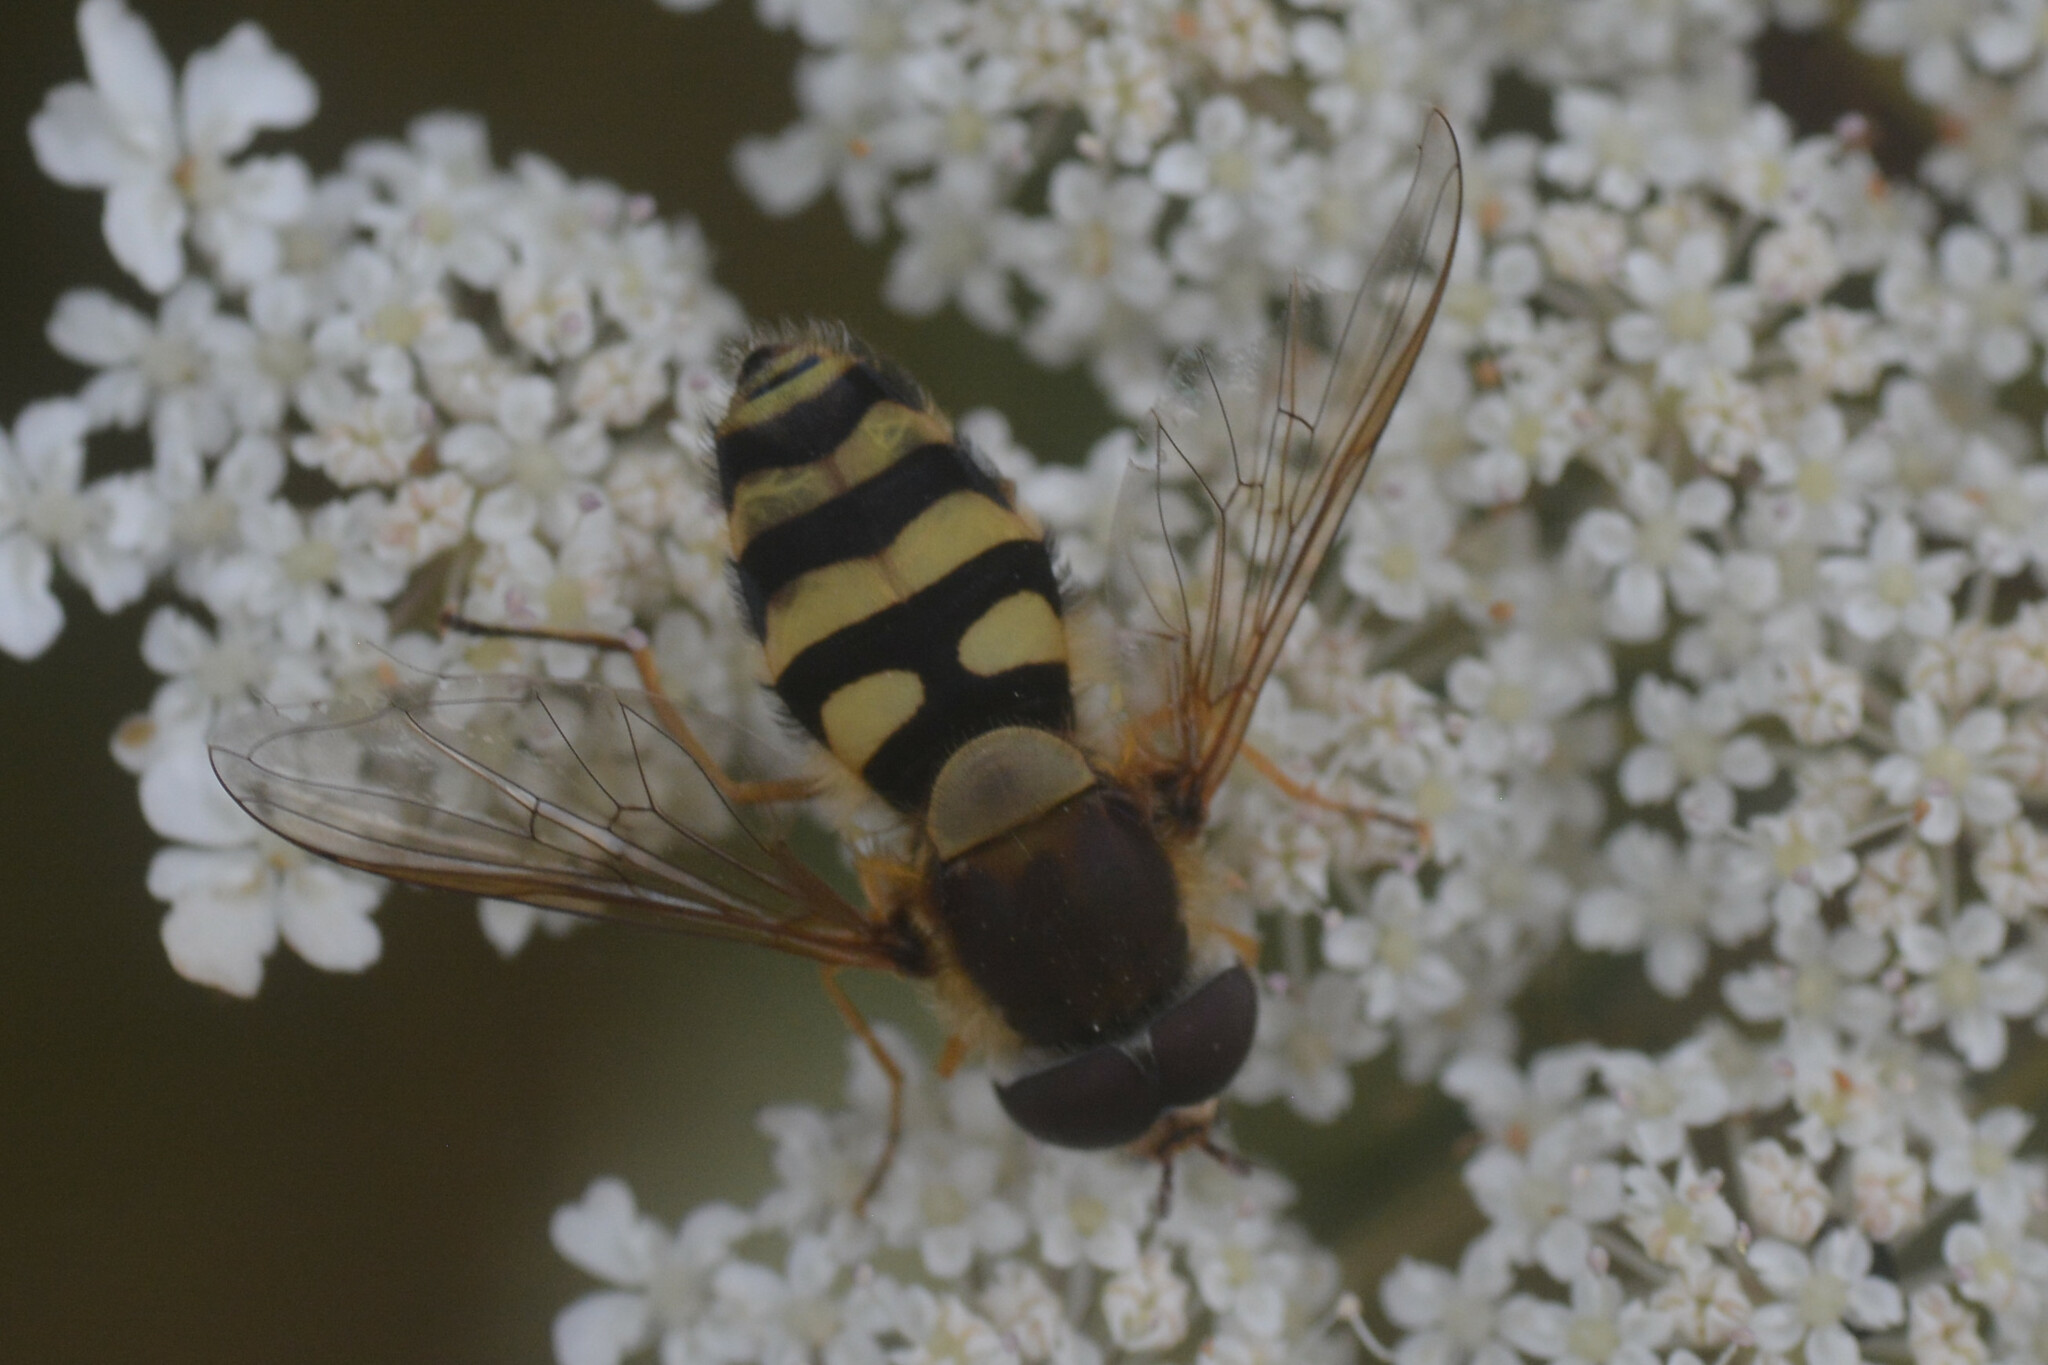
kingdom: Animalia
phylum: Arthropoda
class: Insecta
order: Diptera
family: Syrphidae
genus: Syrphus
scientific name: Syrphus
